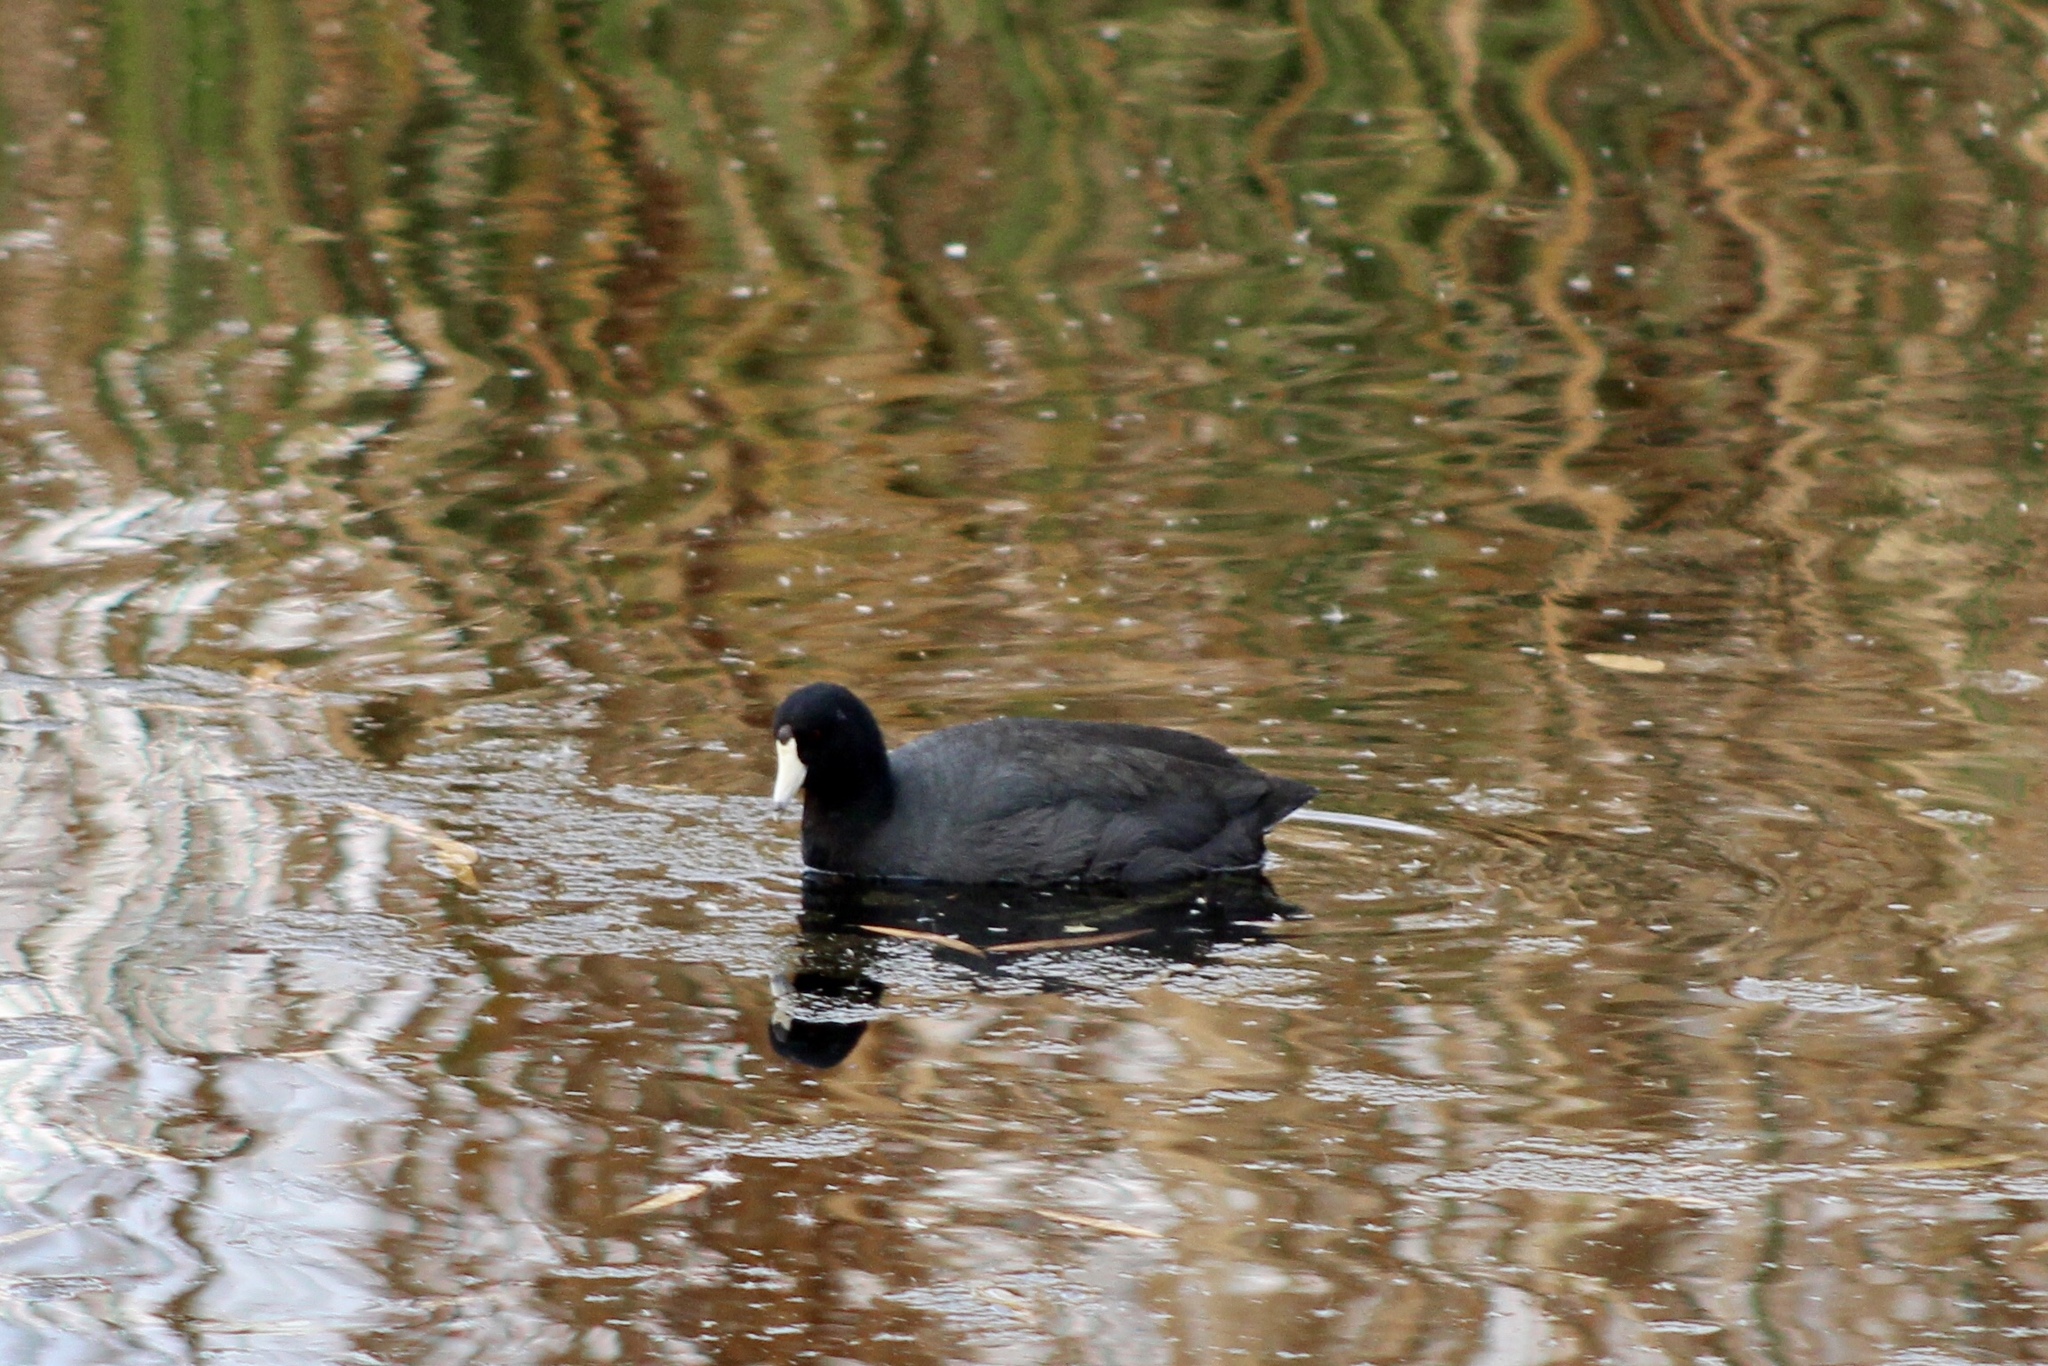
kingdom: Animalia
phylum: Chordata
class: Aves
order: Gruiformes
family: Rallidae
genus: Fulica
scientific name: Fulica americana
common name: American coot
